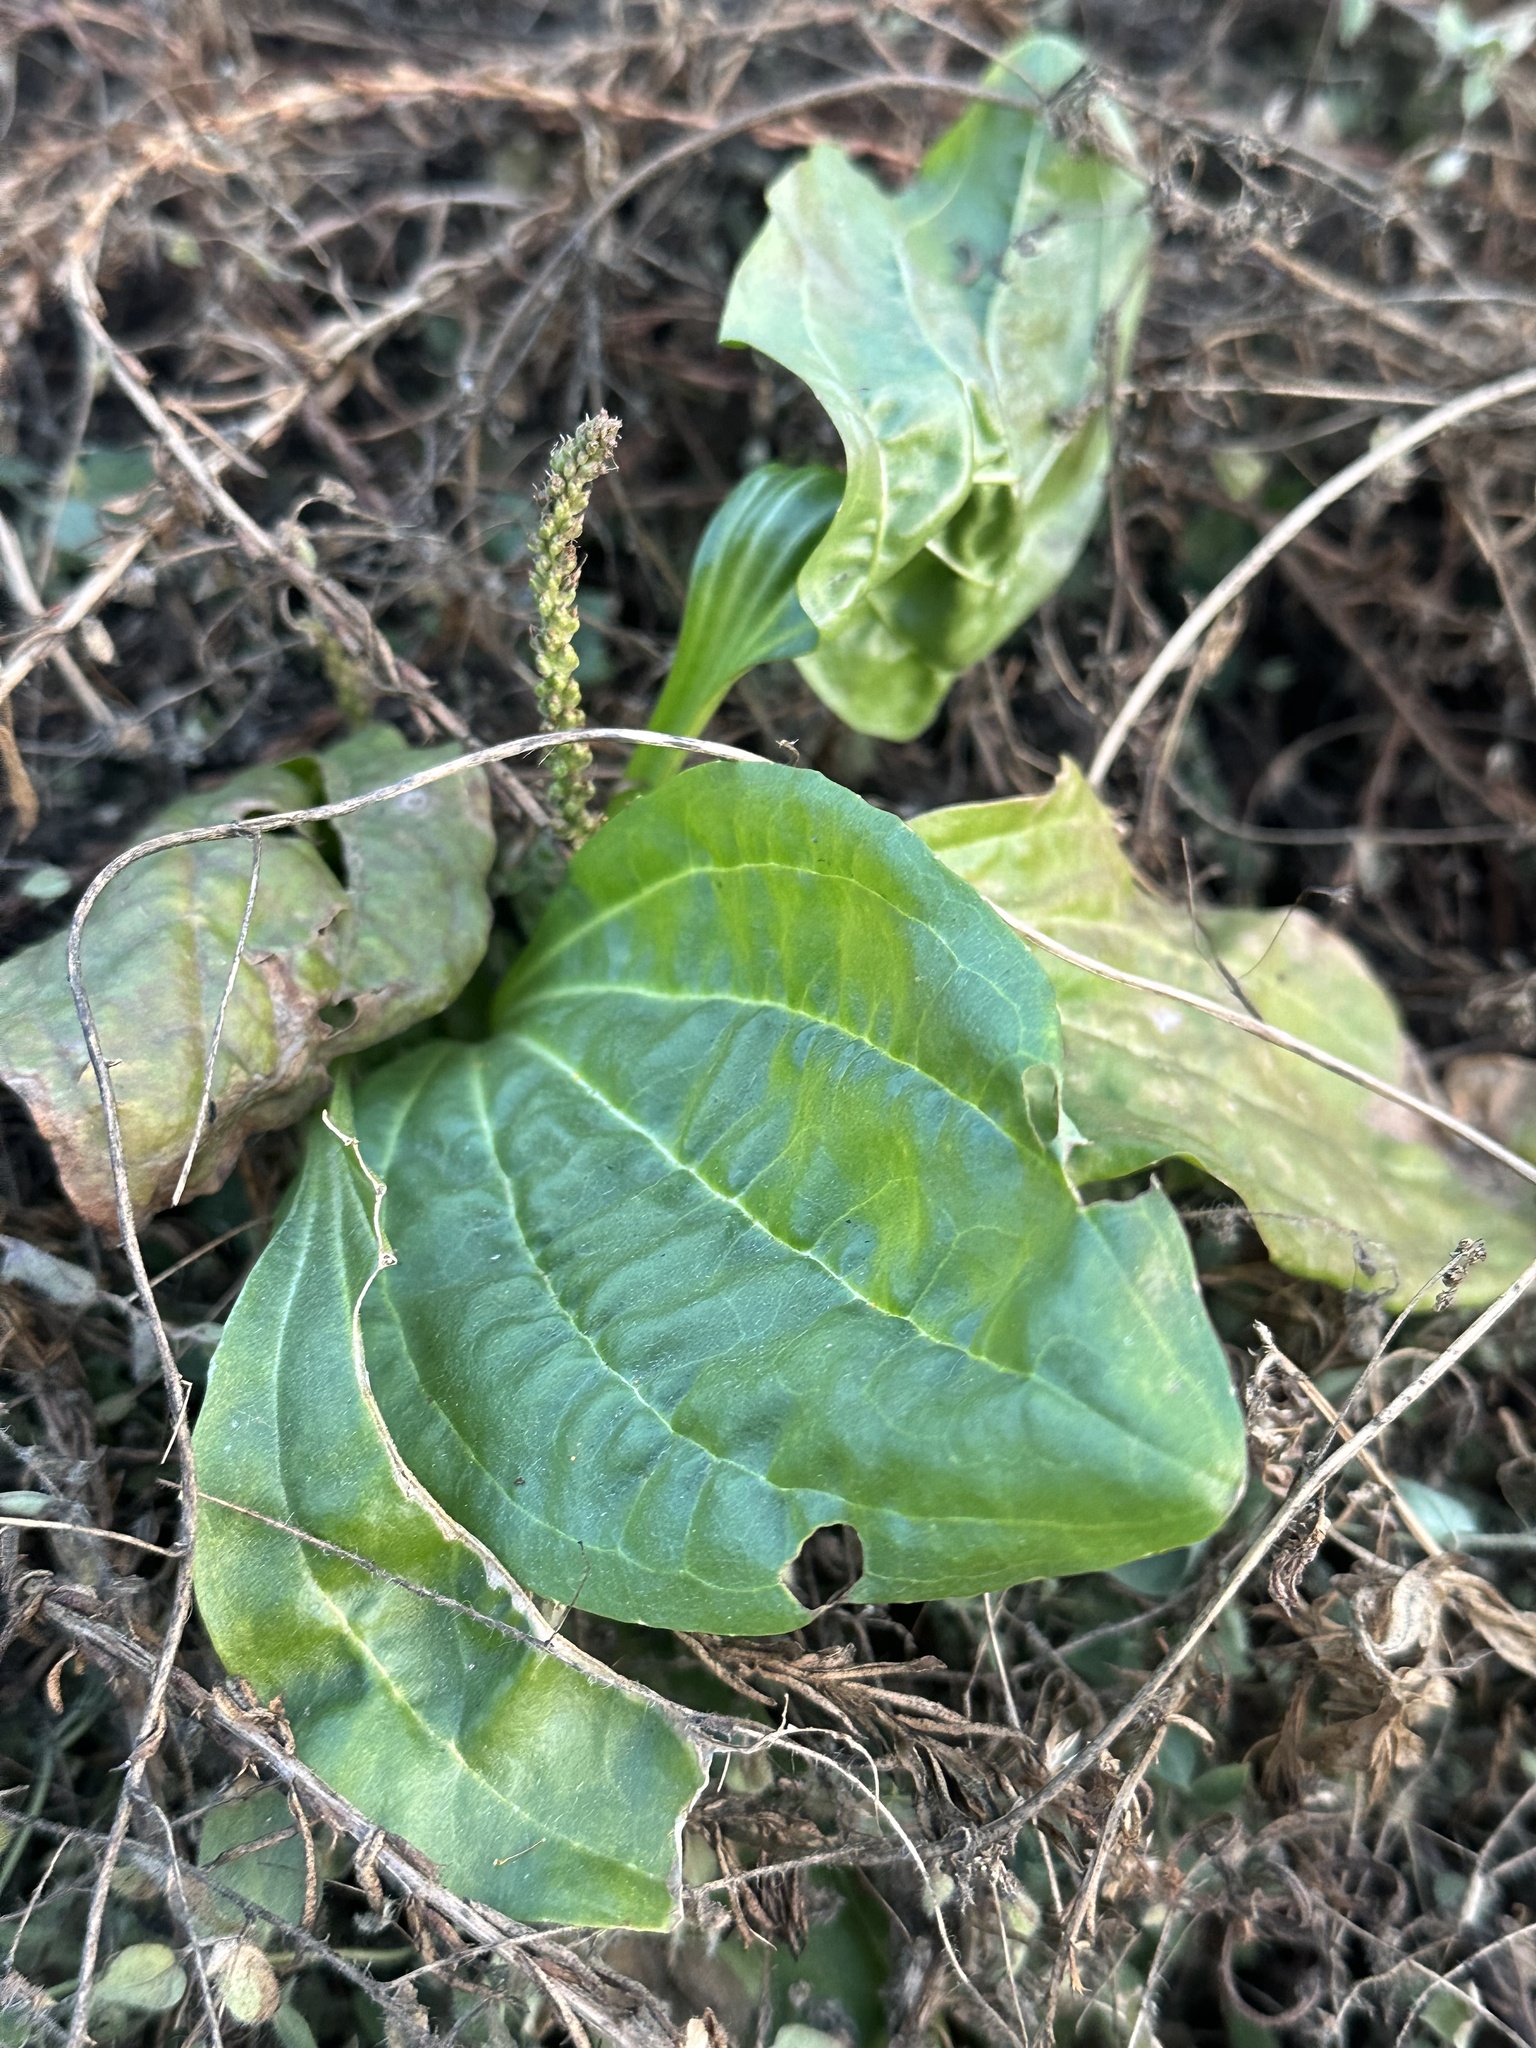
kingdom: Plantae
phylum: Tracheophyta
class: Magnoliopsida
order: Lamiales
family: Plantaginaceae
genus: Plantago
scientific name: Plantago major
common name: Common plantain
